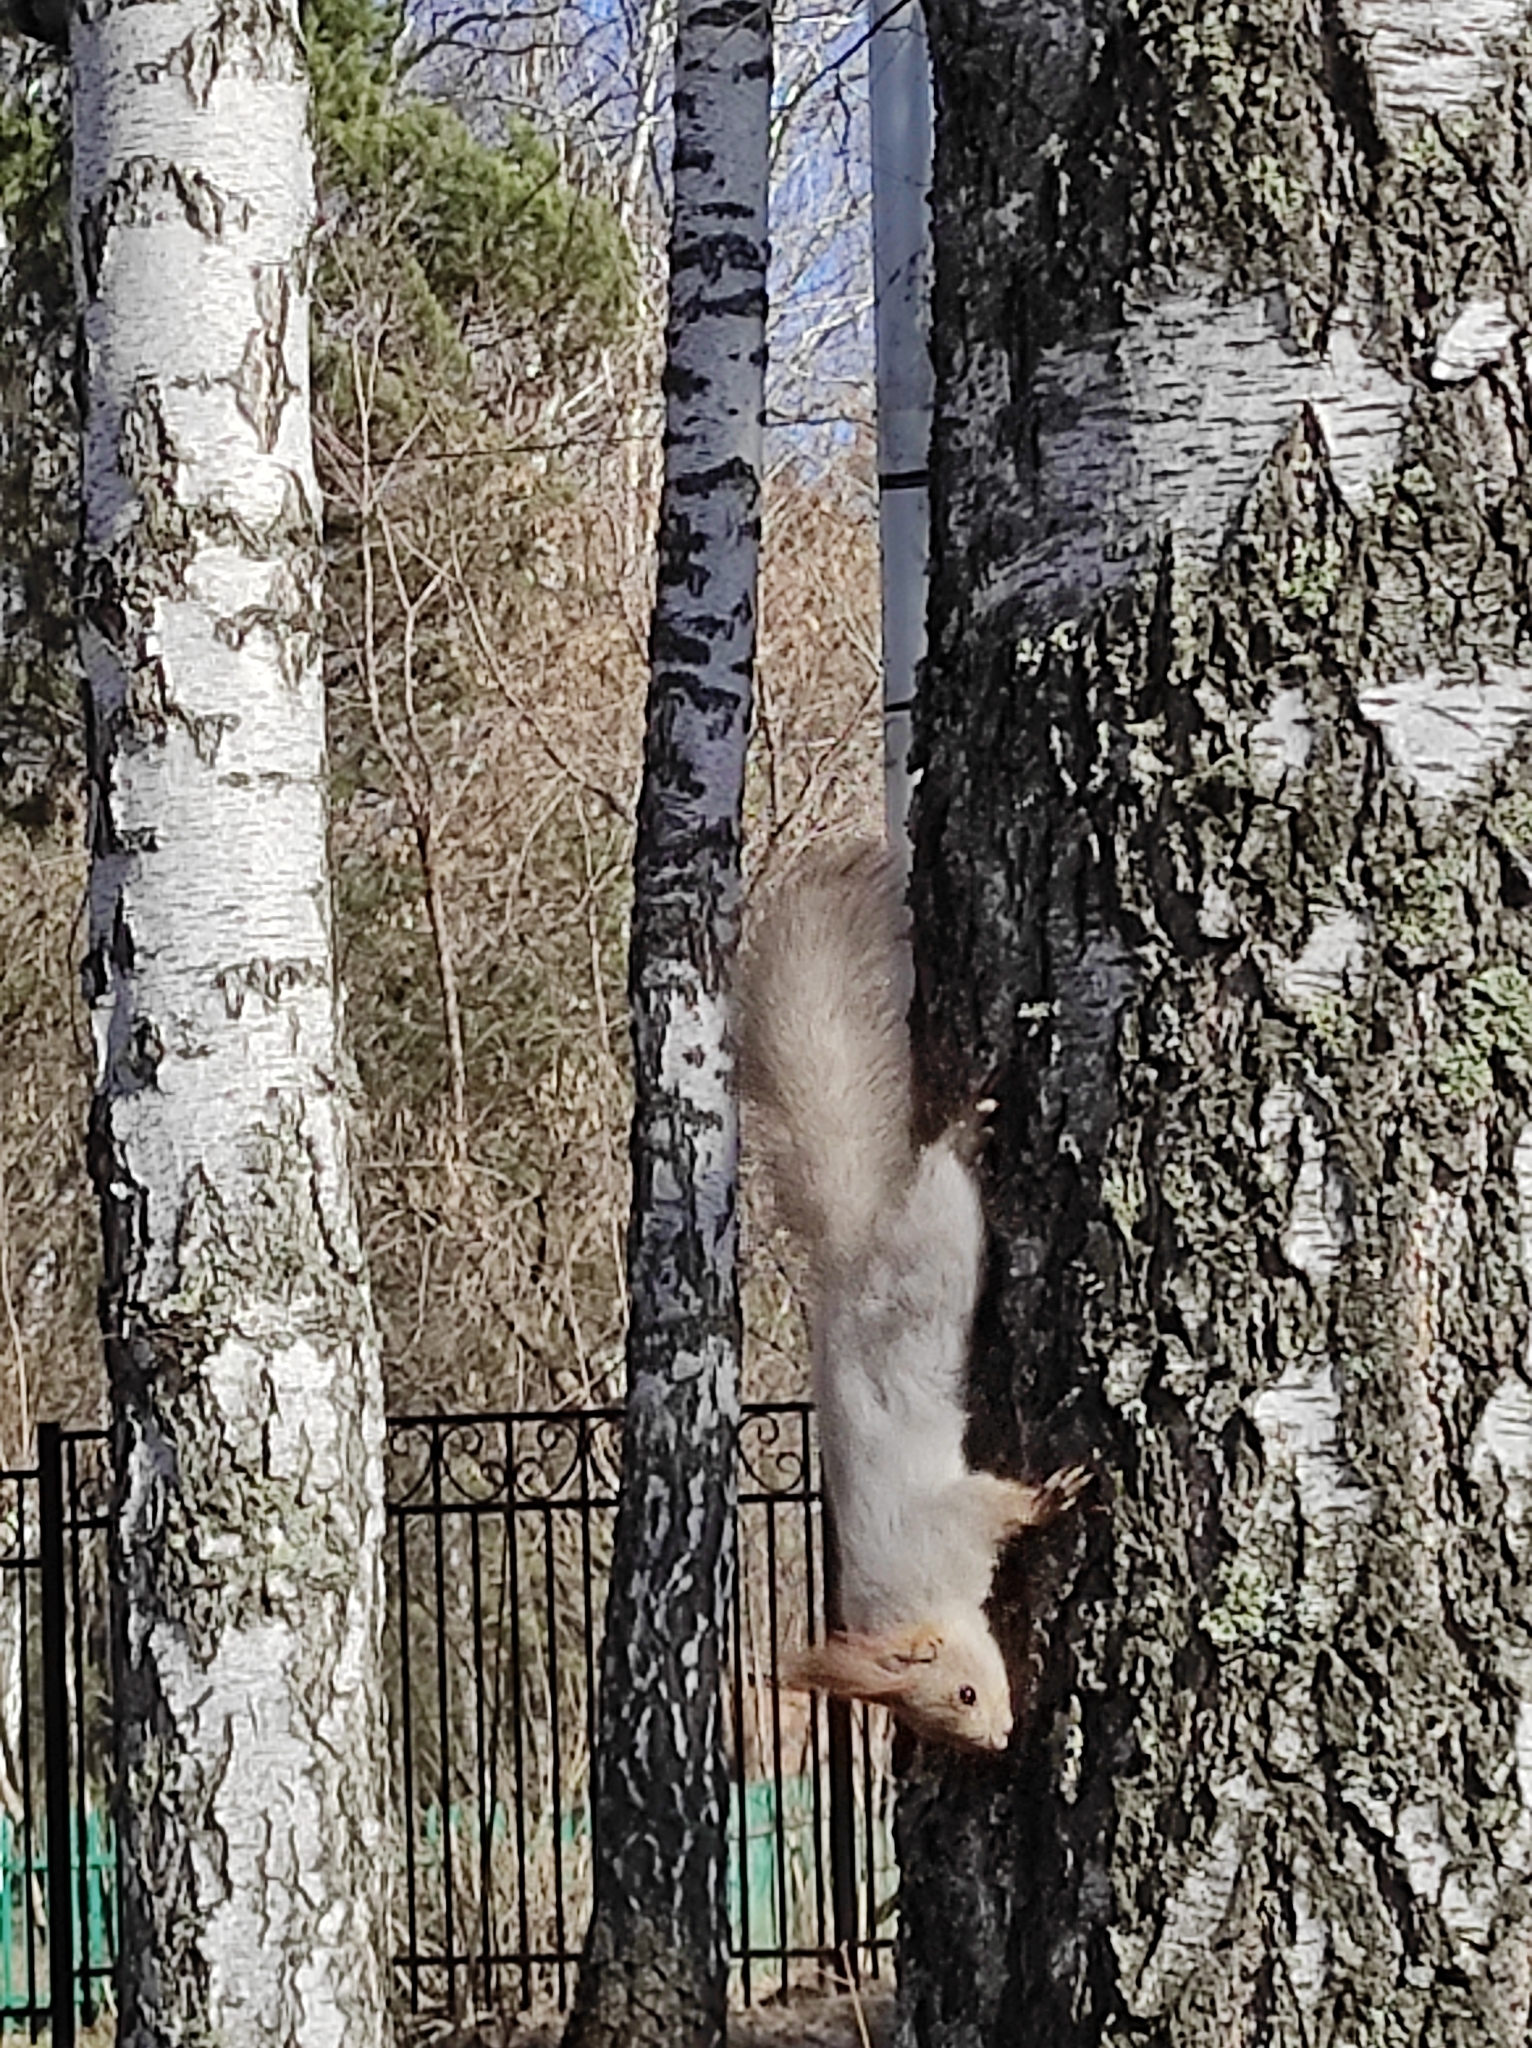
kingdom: Animalia
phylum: Chordata
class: Mammalia
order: Rodentia
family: Sciuridae
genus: Sciurus
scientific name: Sciurus vulgaris
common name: Eurasian red squirrel
